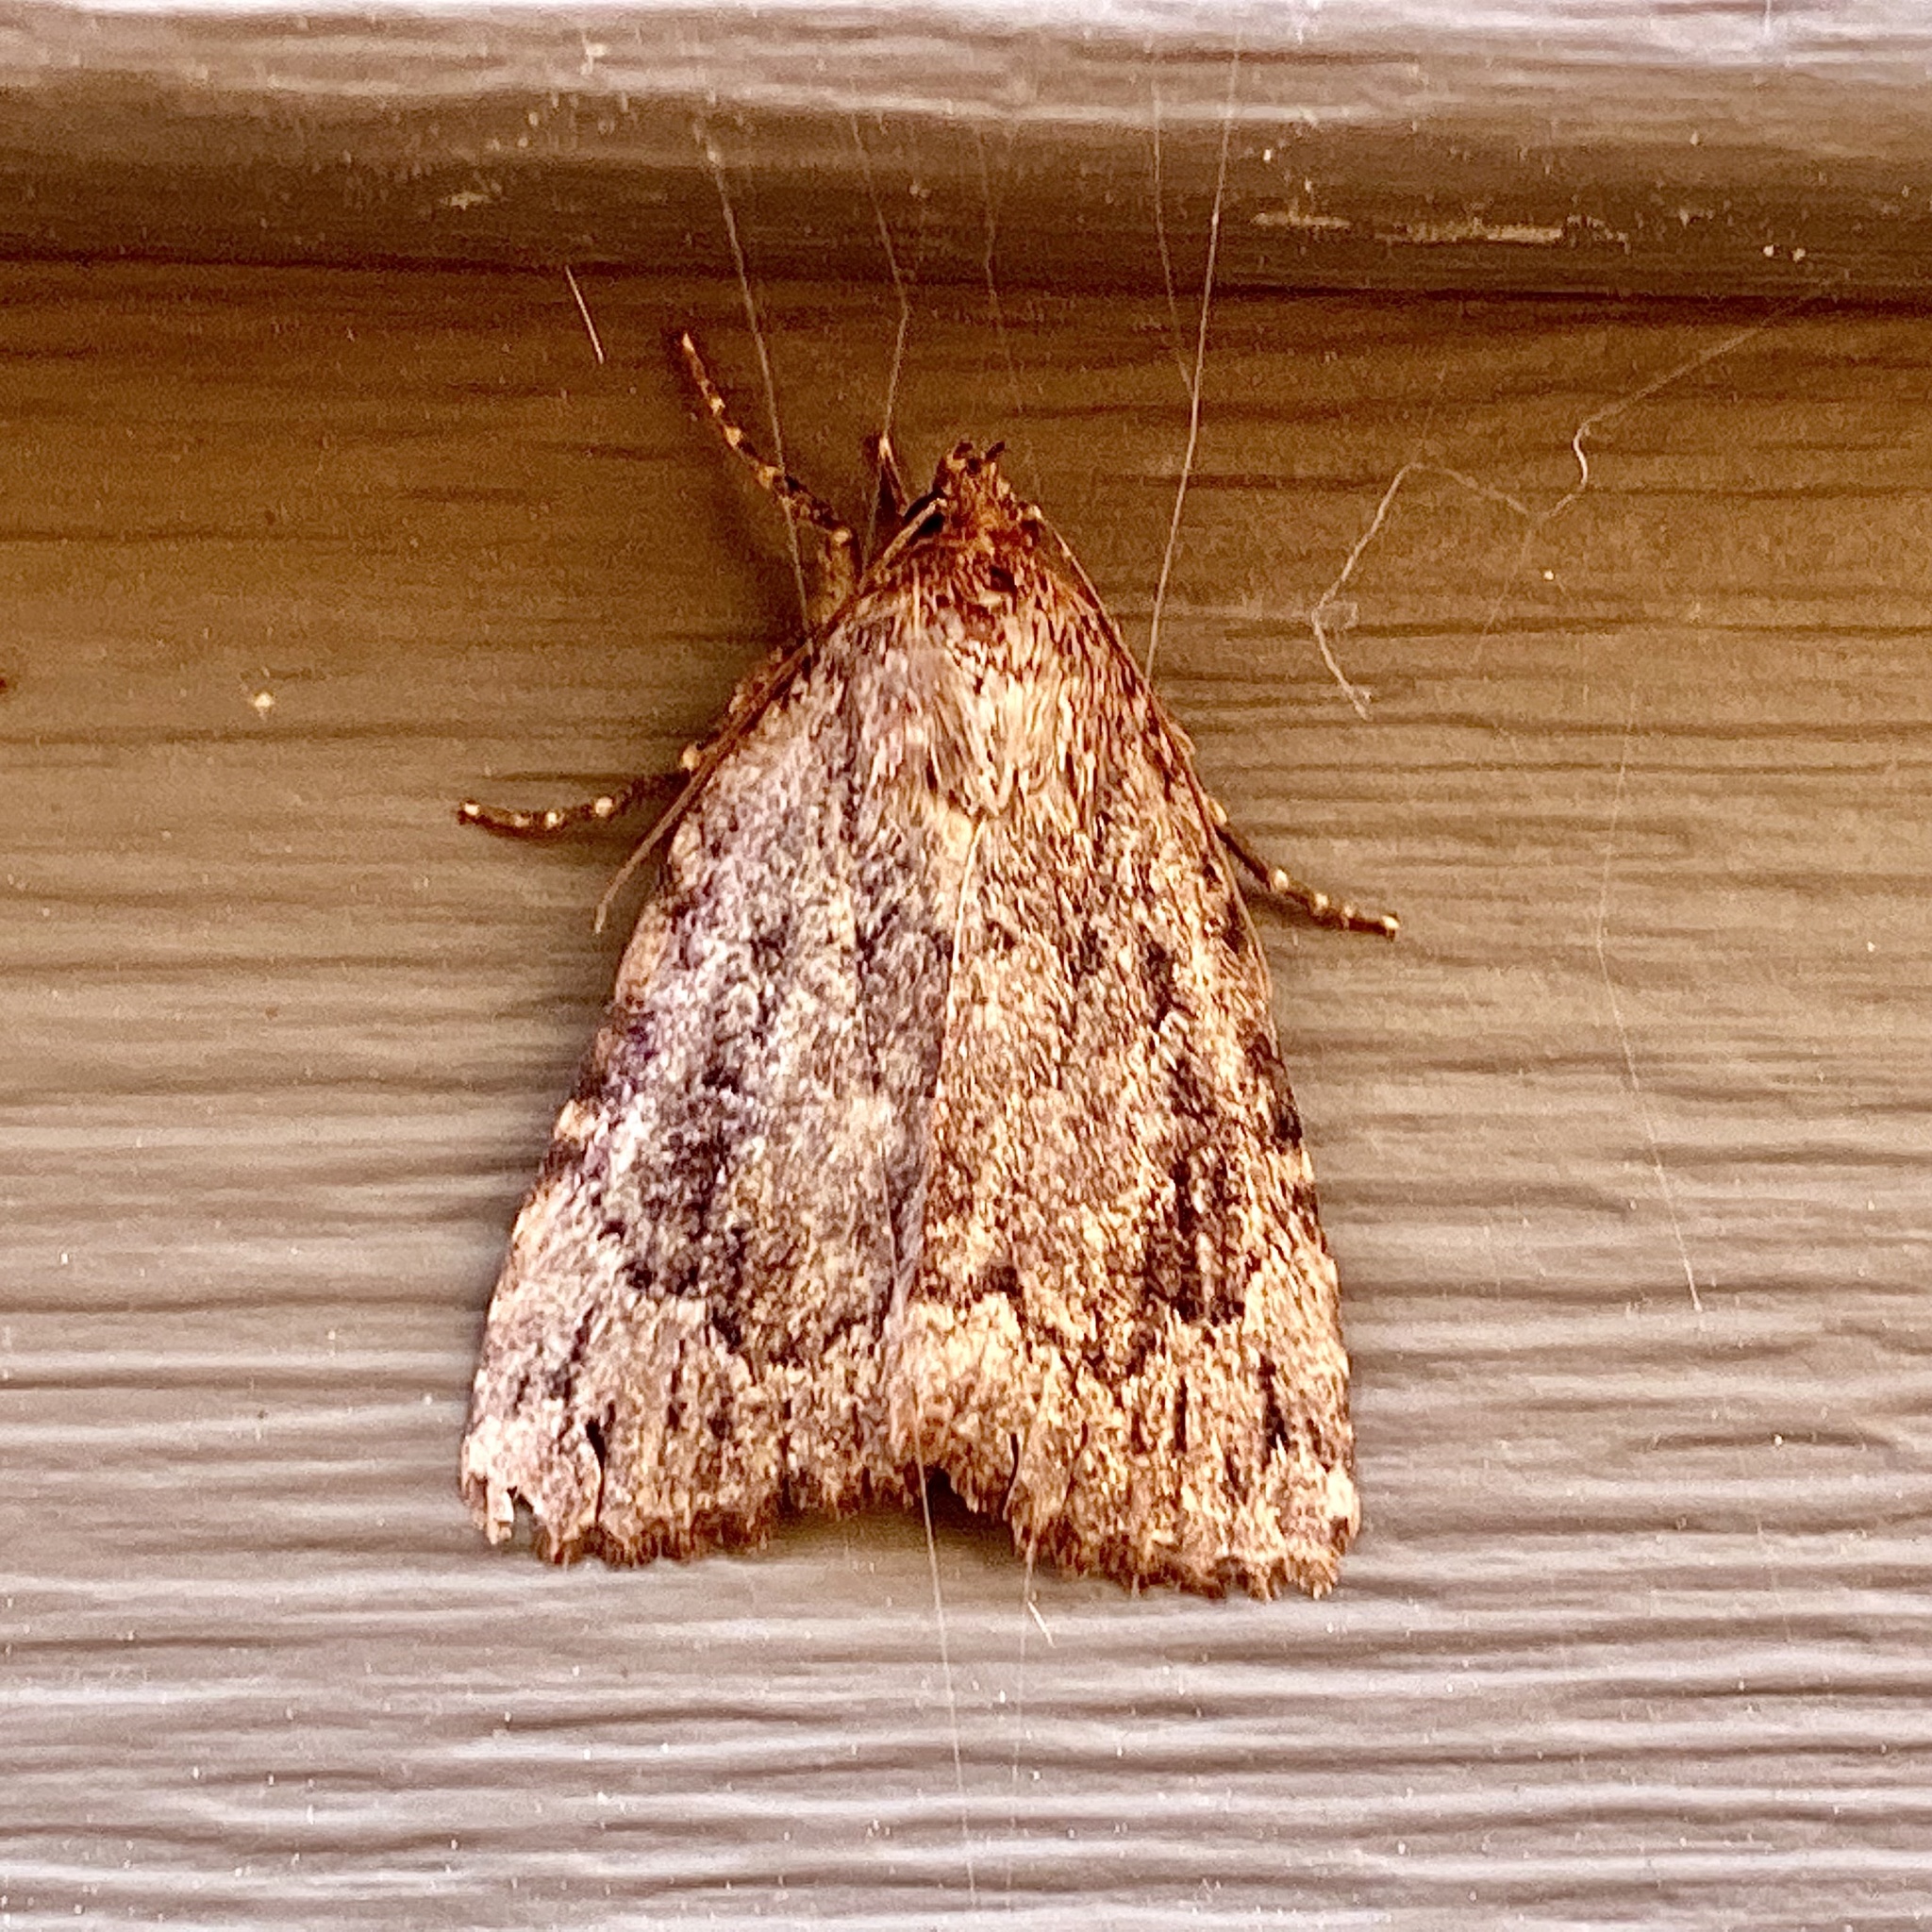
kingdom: Animalia
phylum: Arthropoda
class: Insecta
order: Lepidoptera
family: Noctuidae
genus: Amphipyra
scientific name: Amphipyra pyramidoides
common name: American copper underwing
